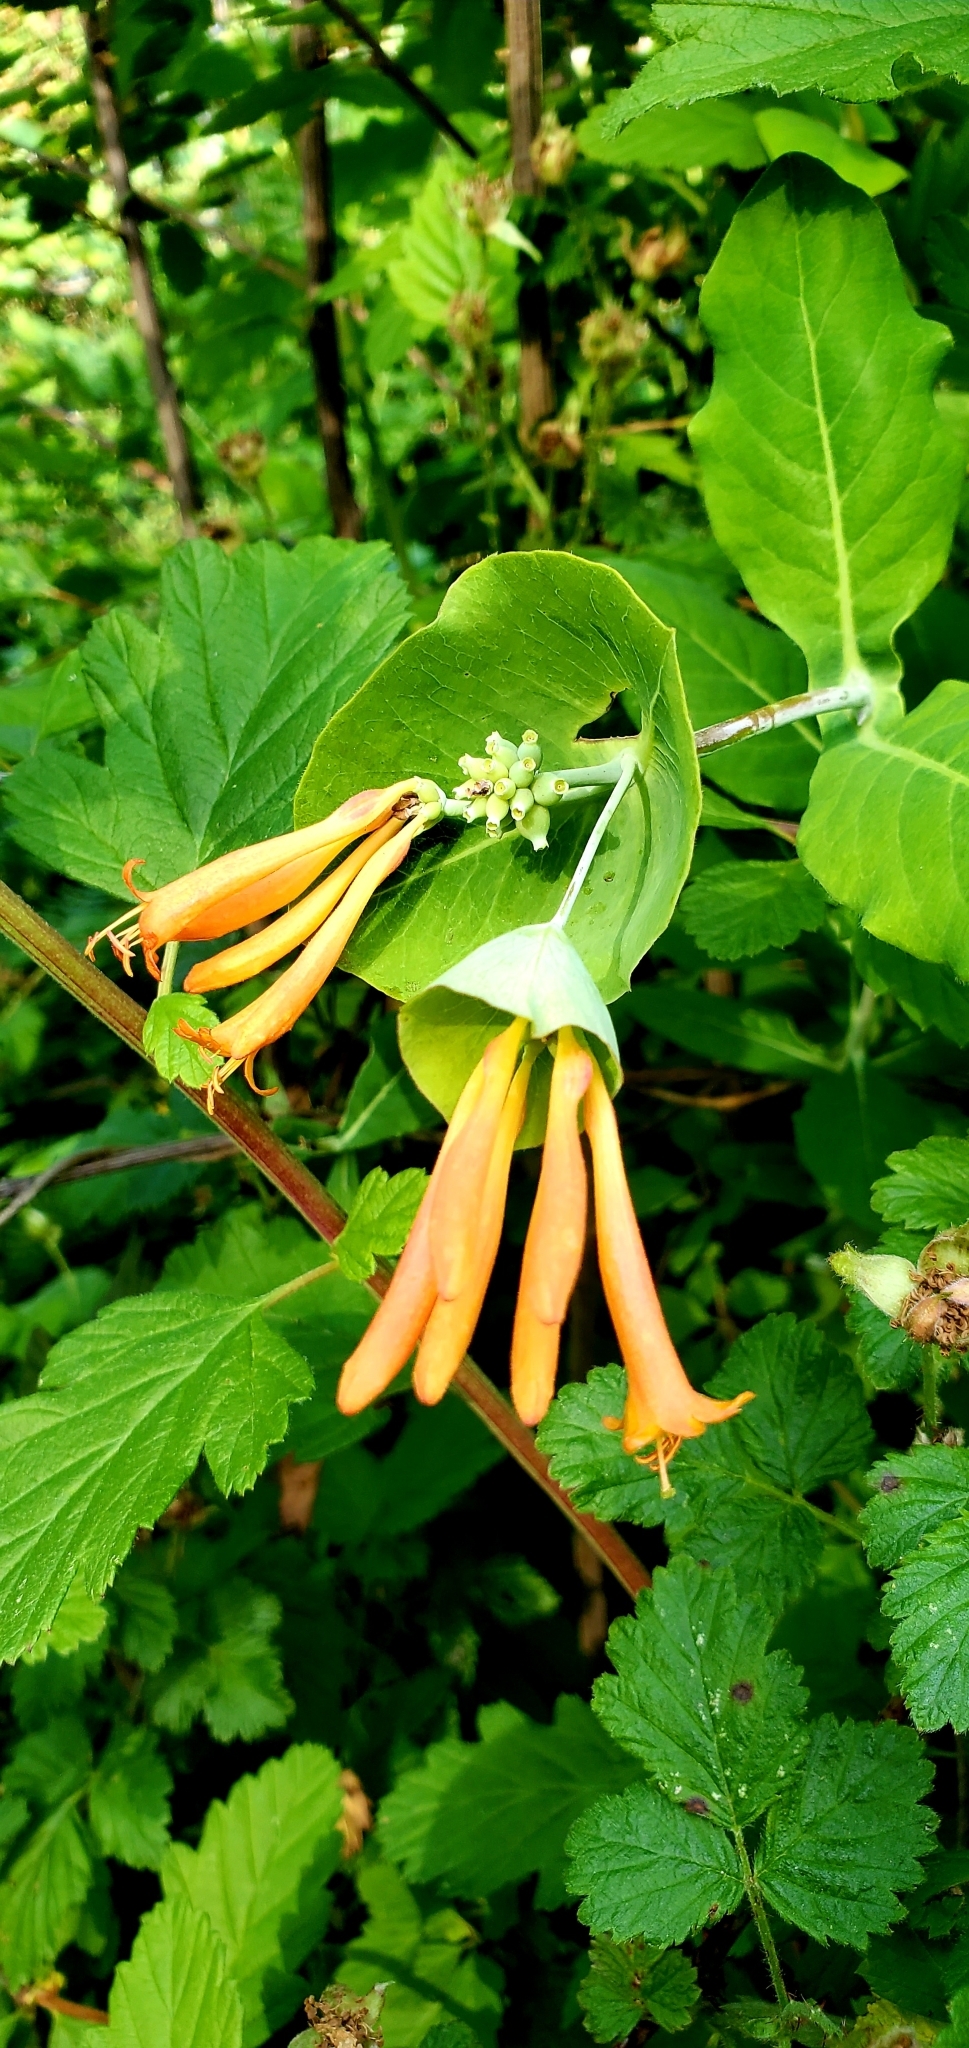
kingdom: Plantae
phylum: Tracheophyta
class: Magnoliopsida
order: Dipsacales
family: Caprifoliaceae
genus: Lonicera
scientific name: Lonicera ciliosa
